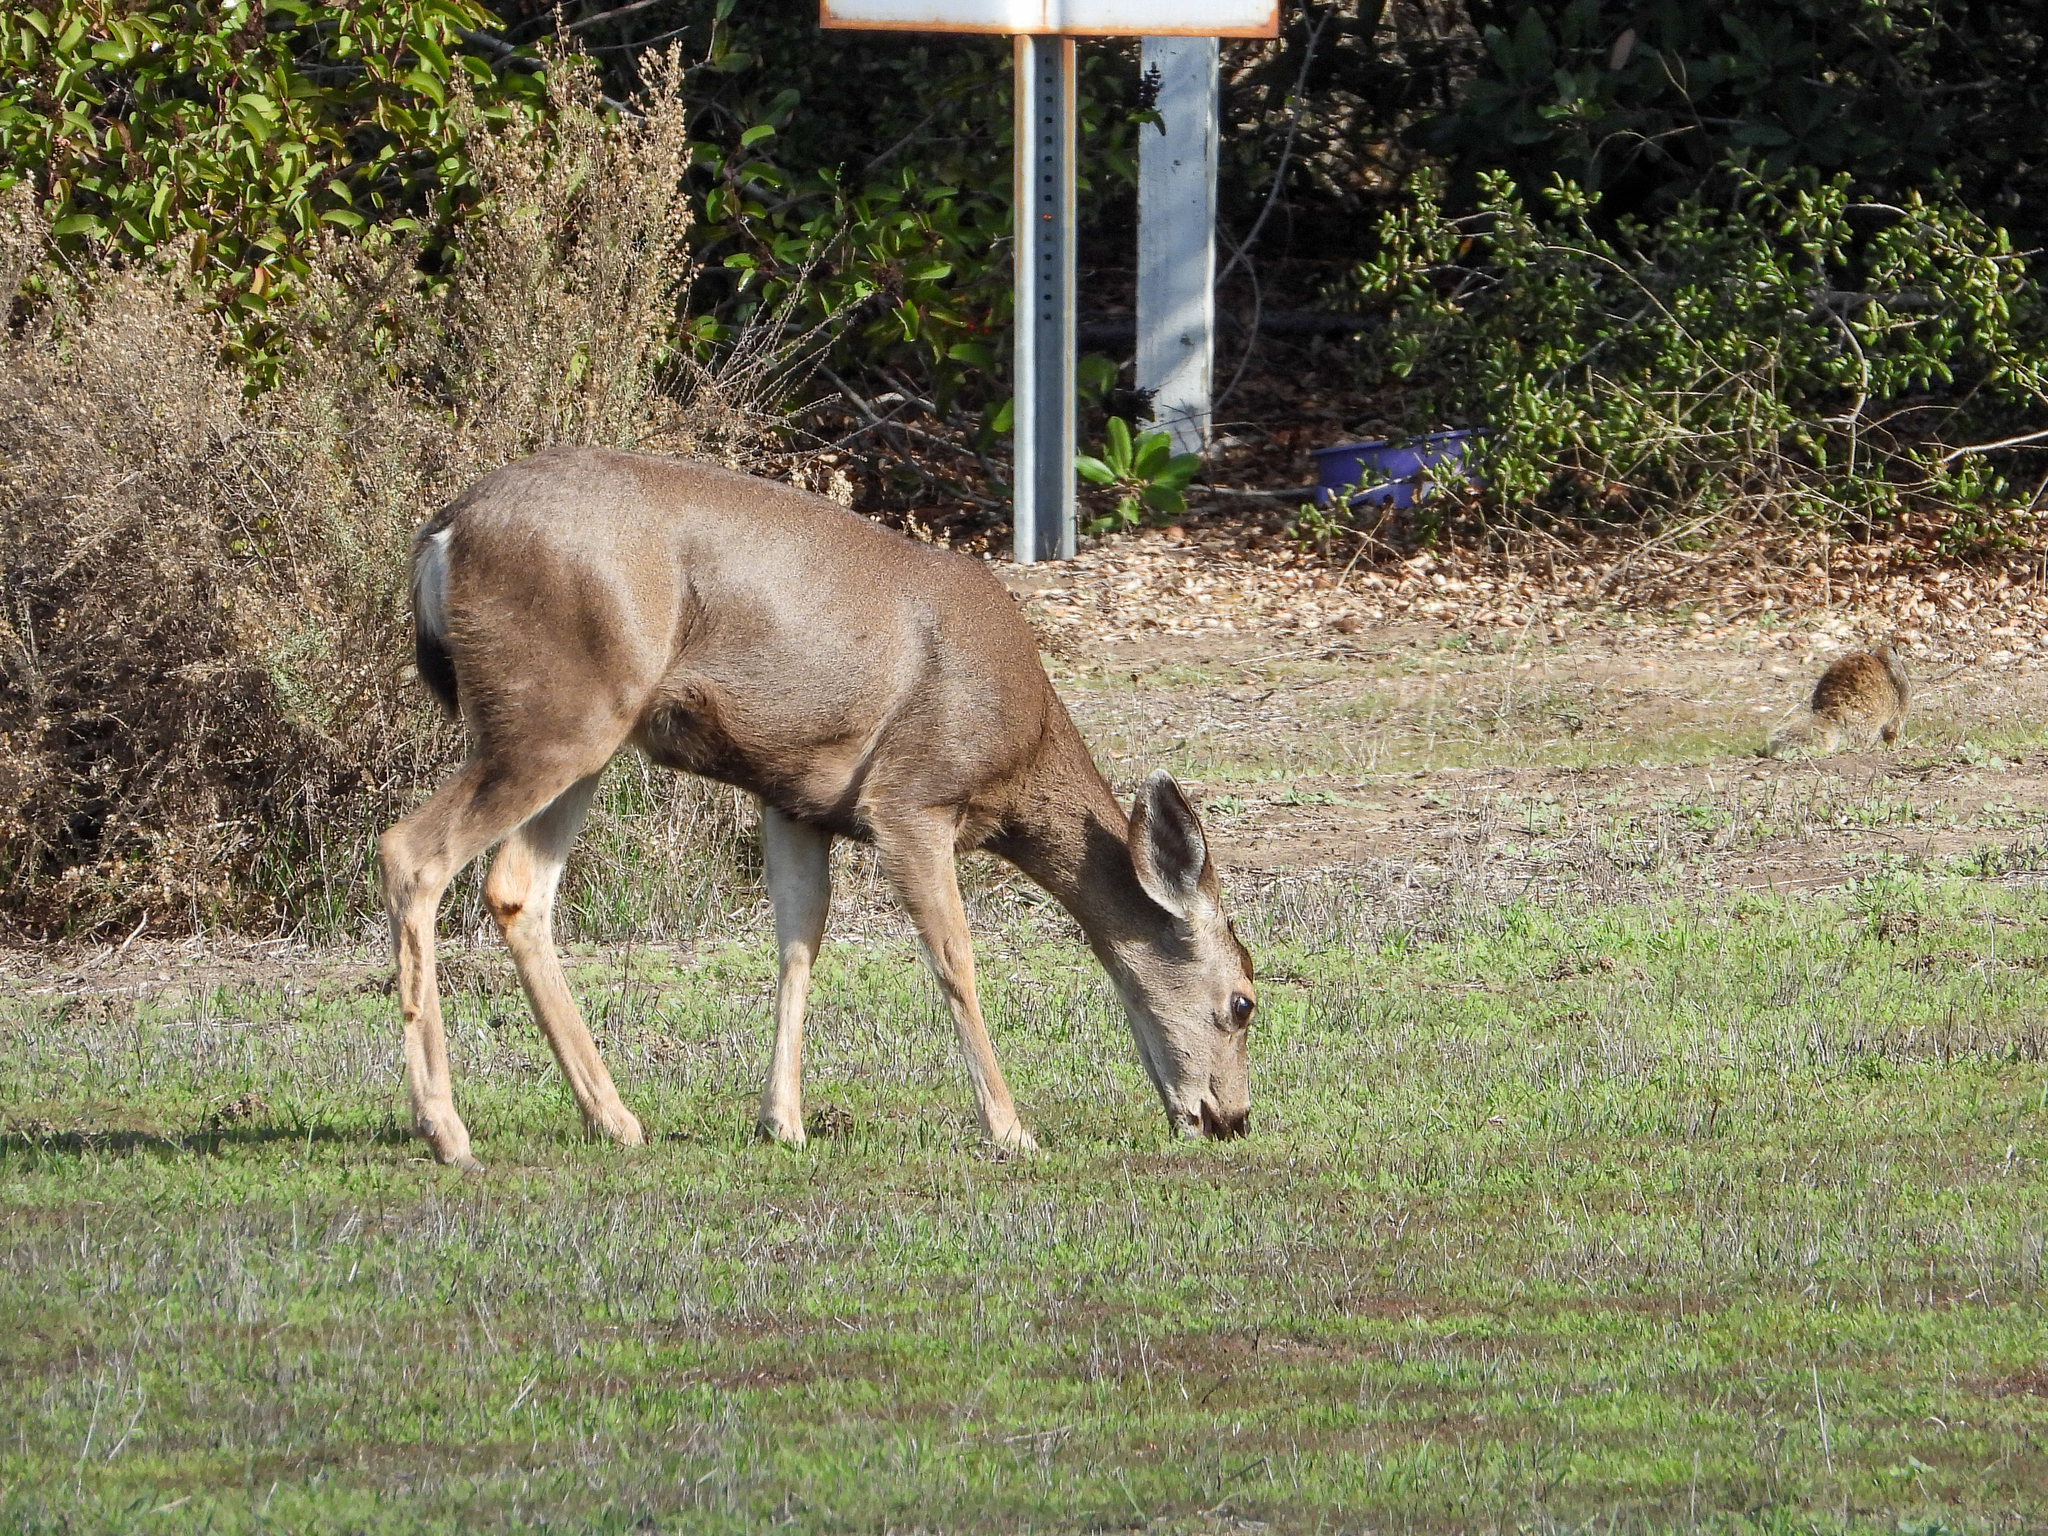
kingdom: Animalia
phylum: Chordata
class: Mammalia
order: Artiodactyla
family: Cervidae
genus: Odocoileus
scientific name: Odocoileus hemionus
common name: Mule deer
